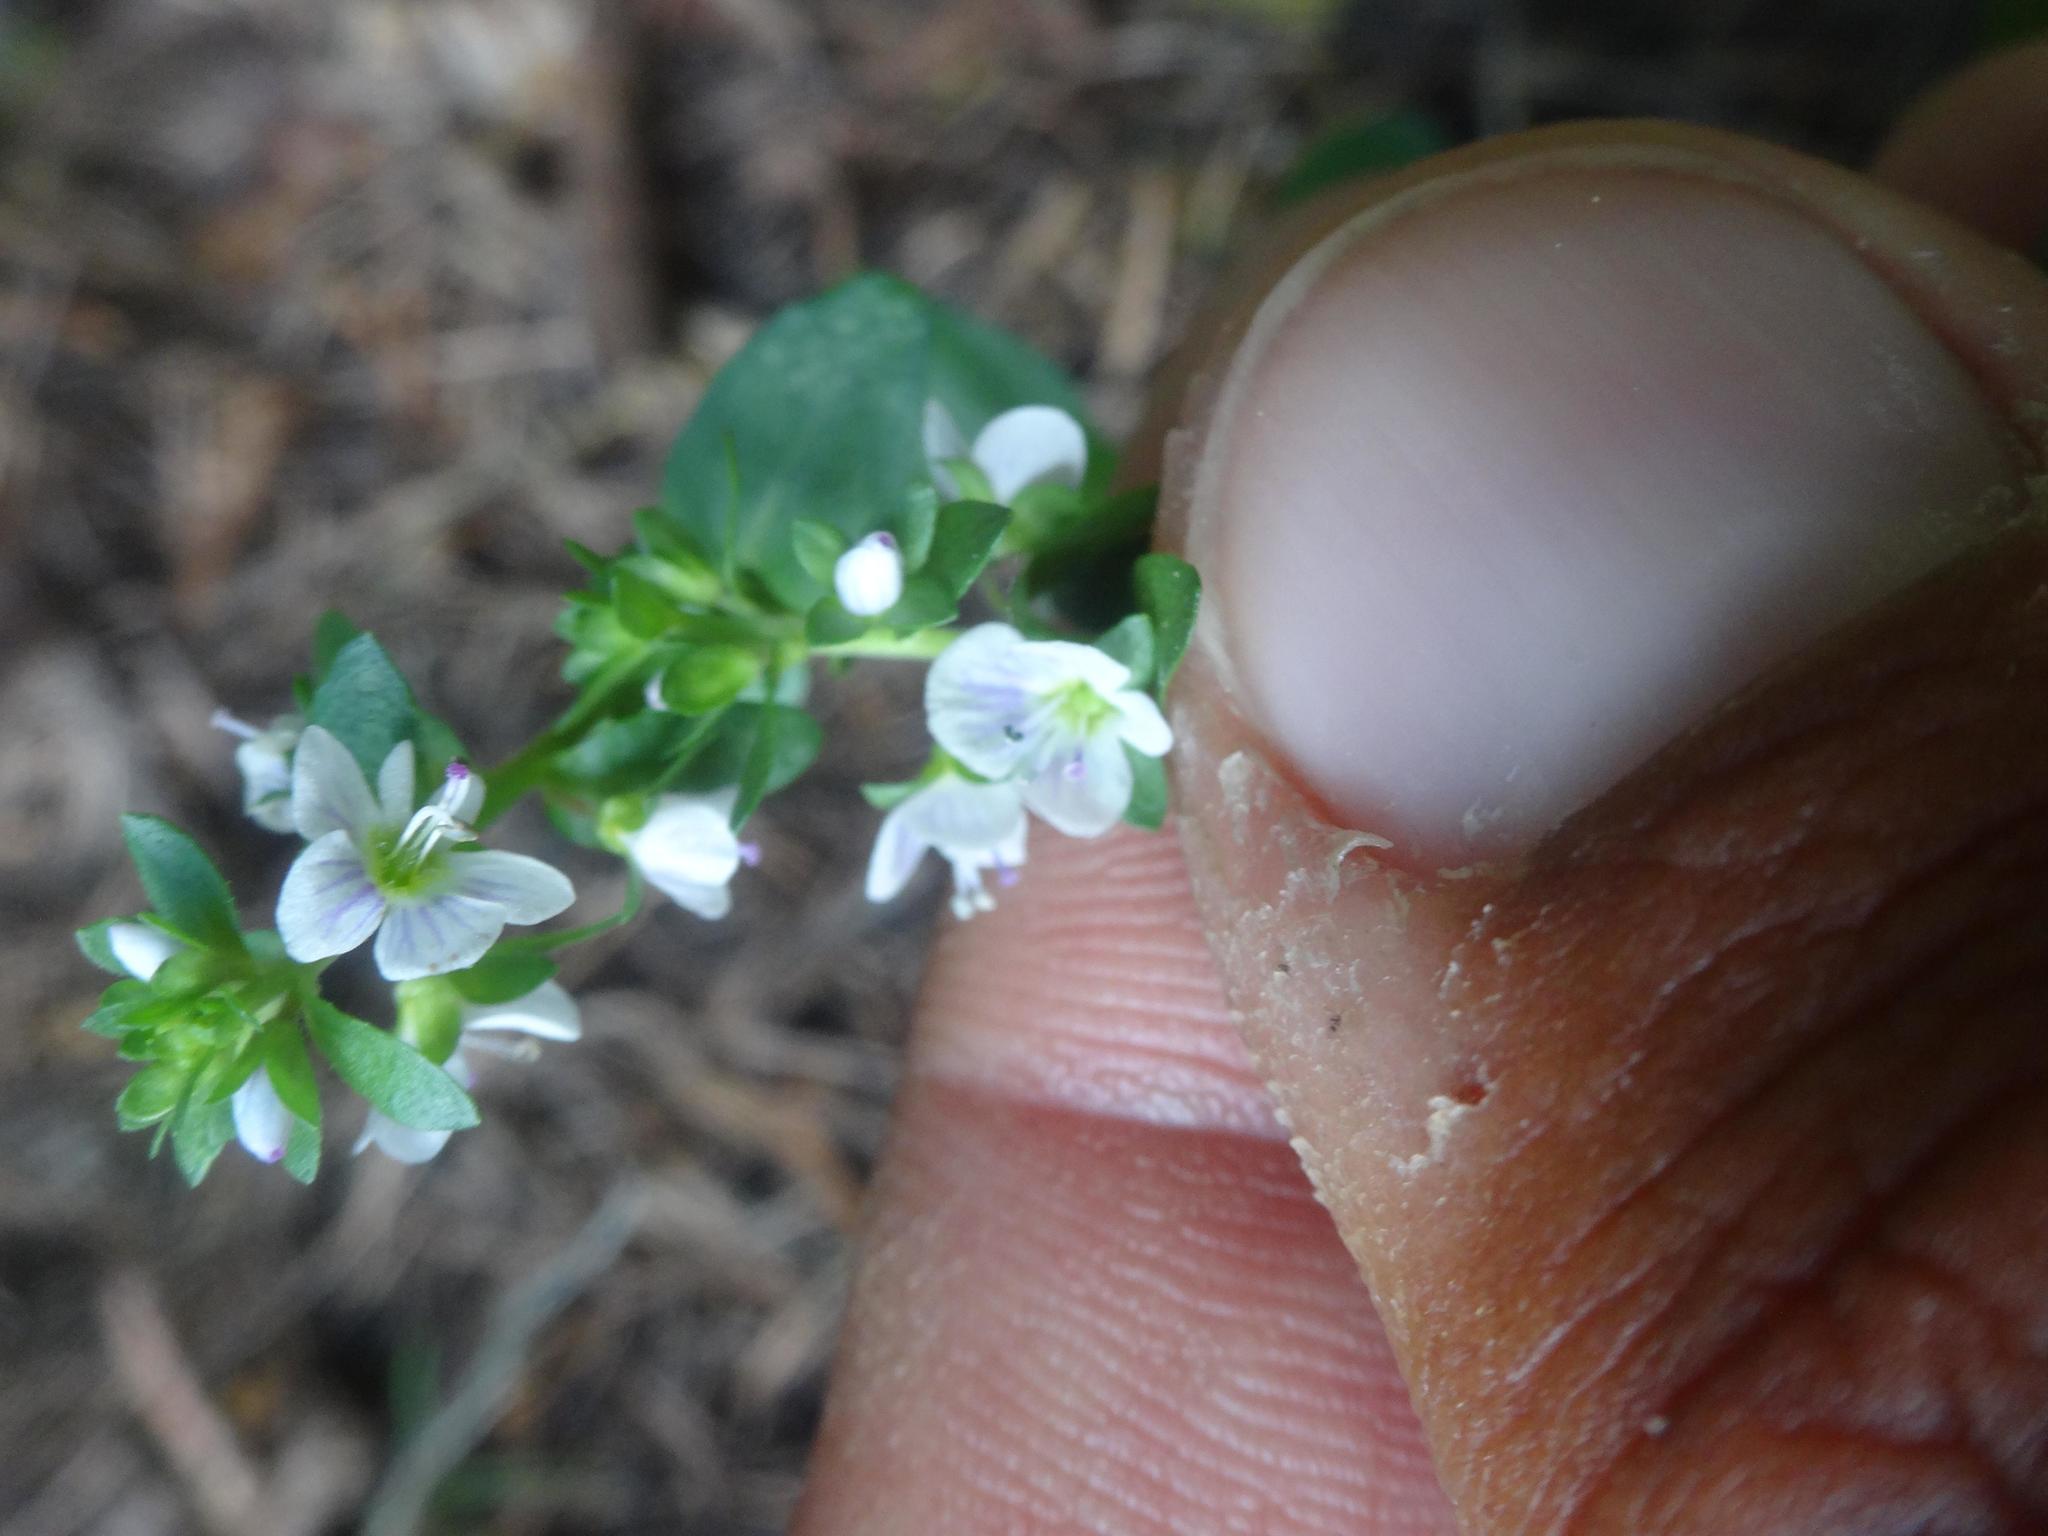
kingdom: Plantae
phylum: Tracheophyta
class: Magnoliopsida
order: Lamiales
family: Plantaginaceae
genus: Veronica
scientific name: Veronica serpyllifolia
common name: Thyme-leaved speedwell
